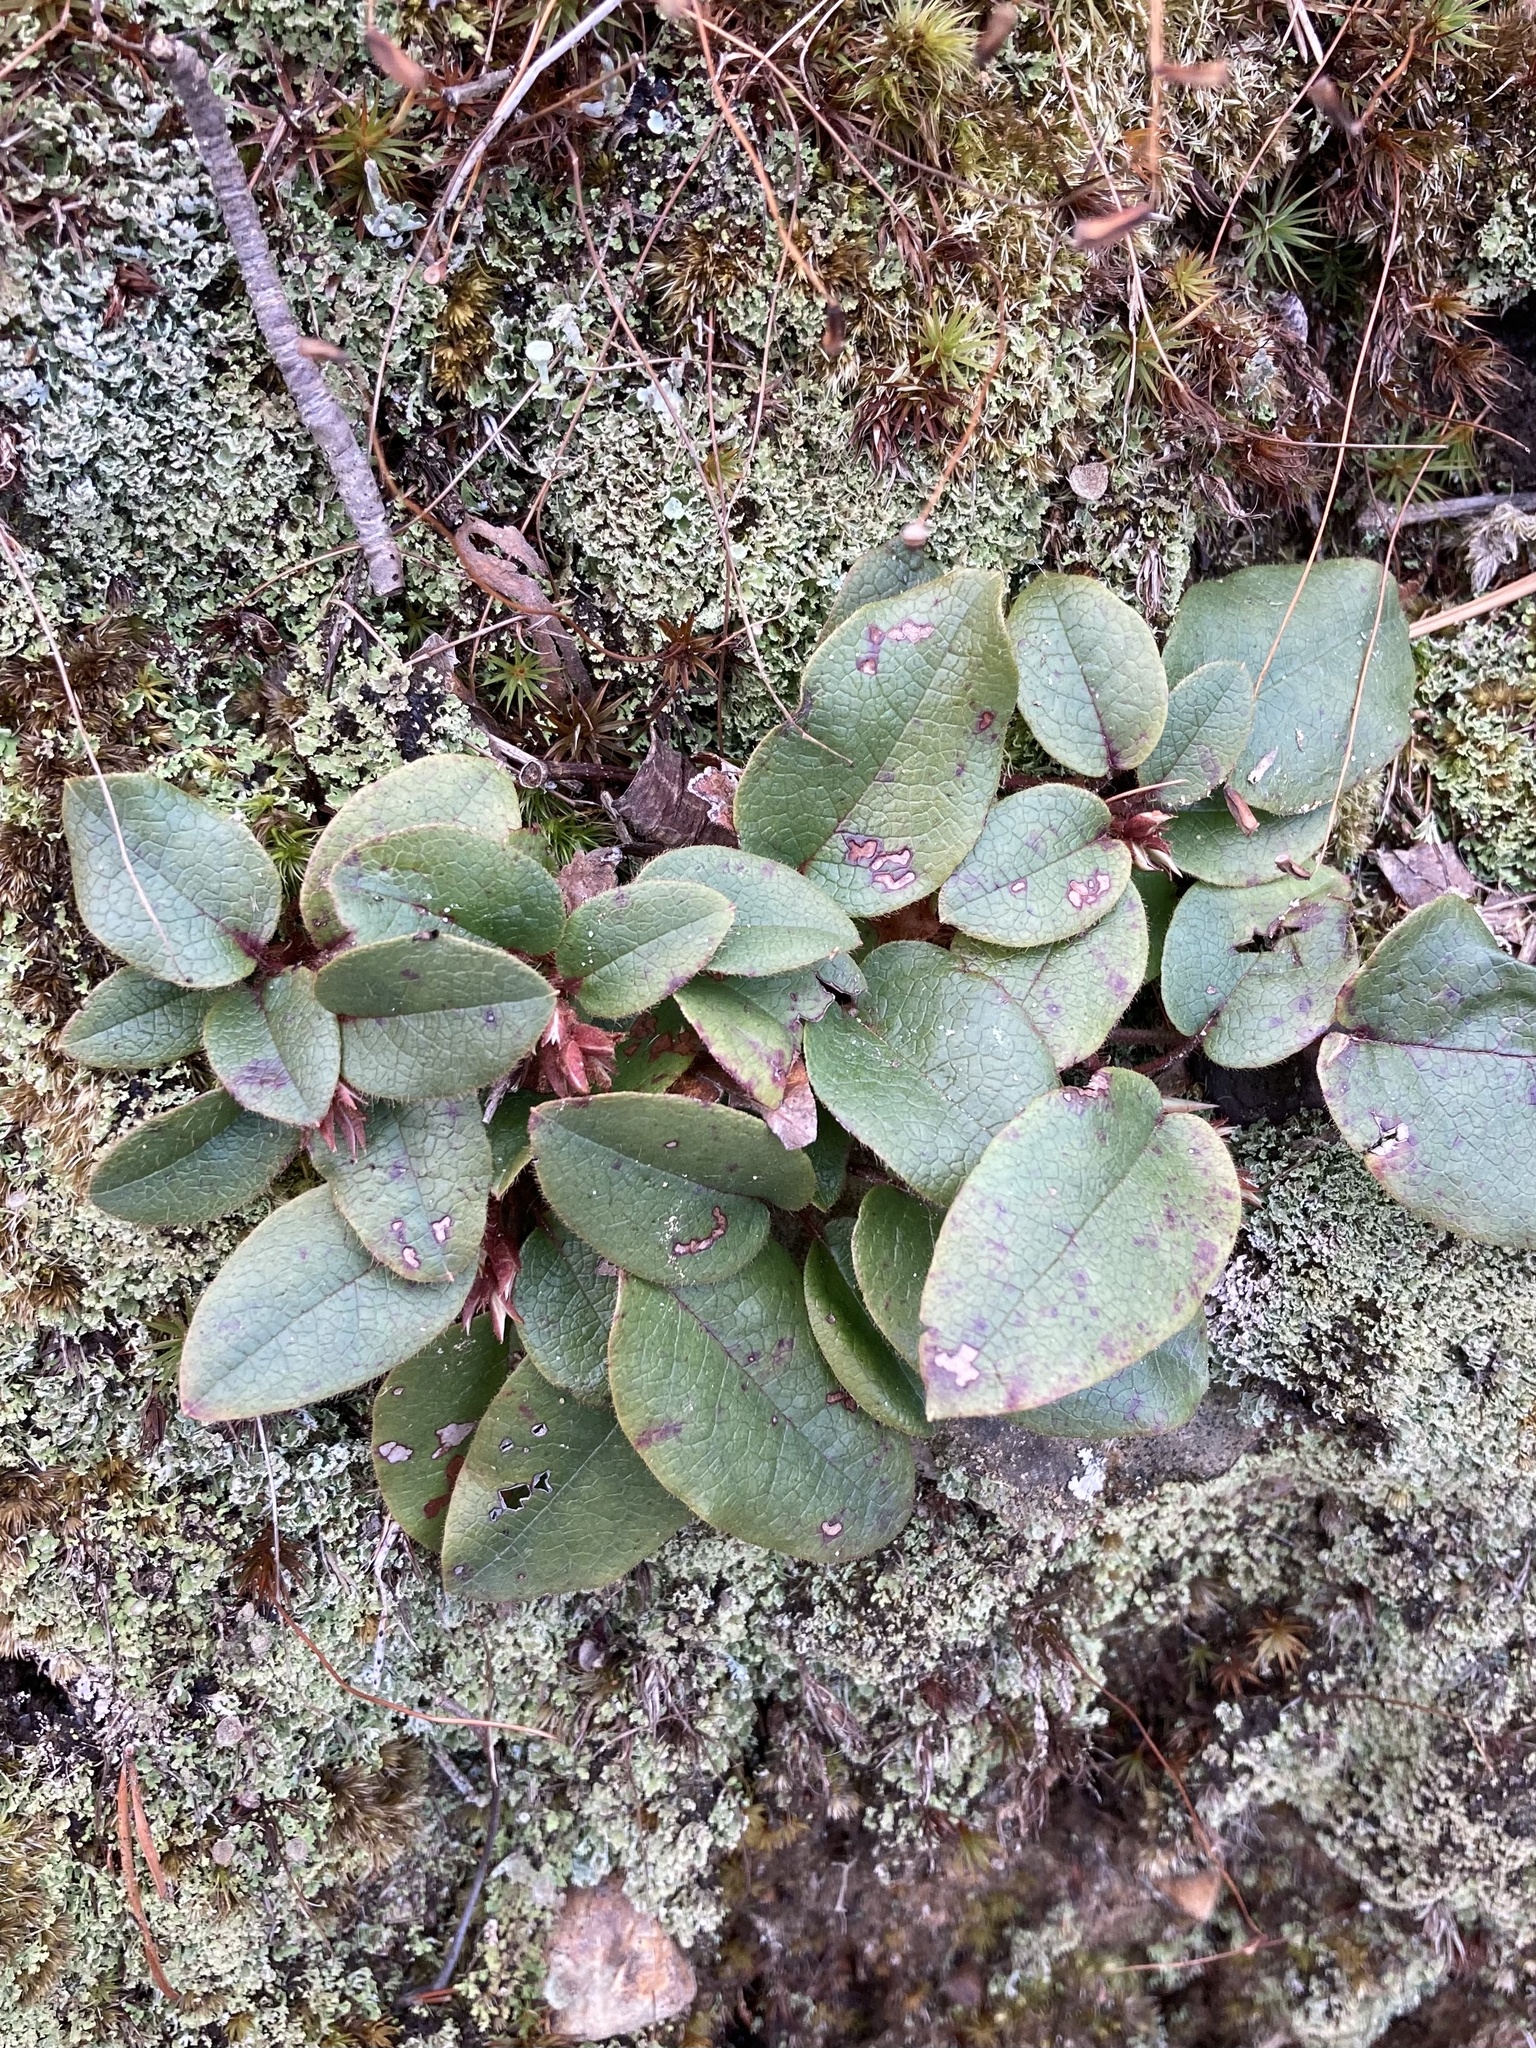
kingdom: Plantae
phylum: Tracheophyta
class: Magnoliopsida
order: Ericales
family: Ericaceae
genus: Epigaea
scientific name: Epigaea repens
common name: Gravelroot
